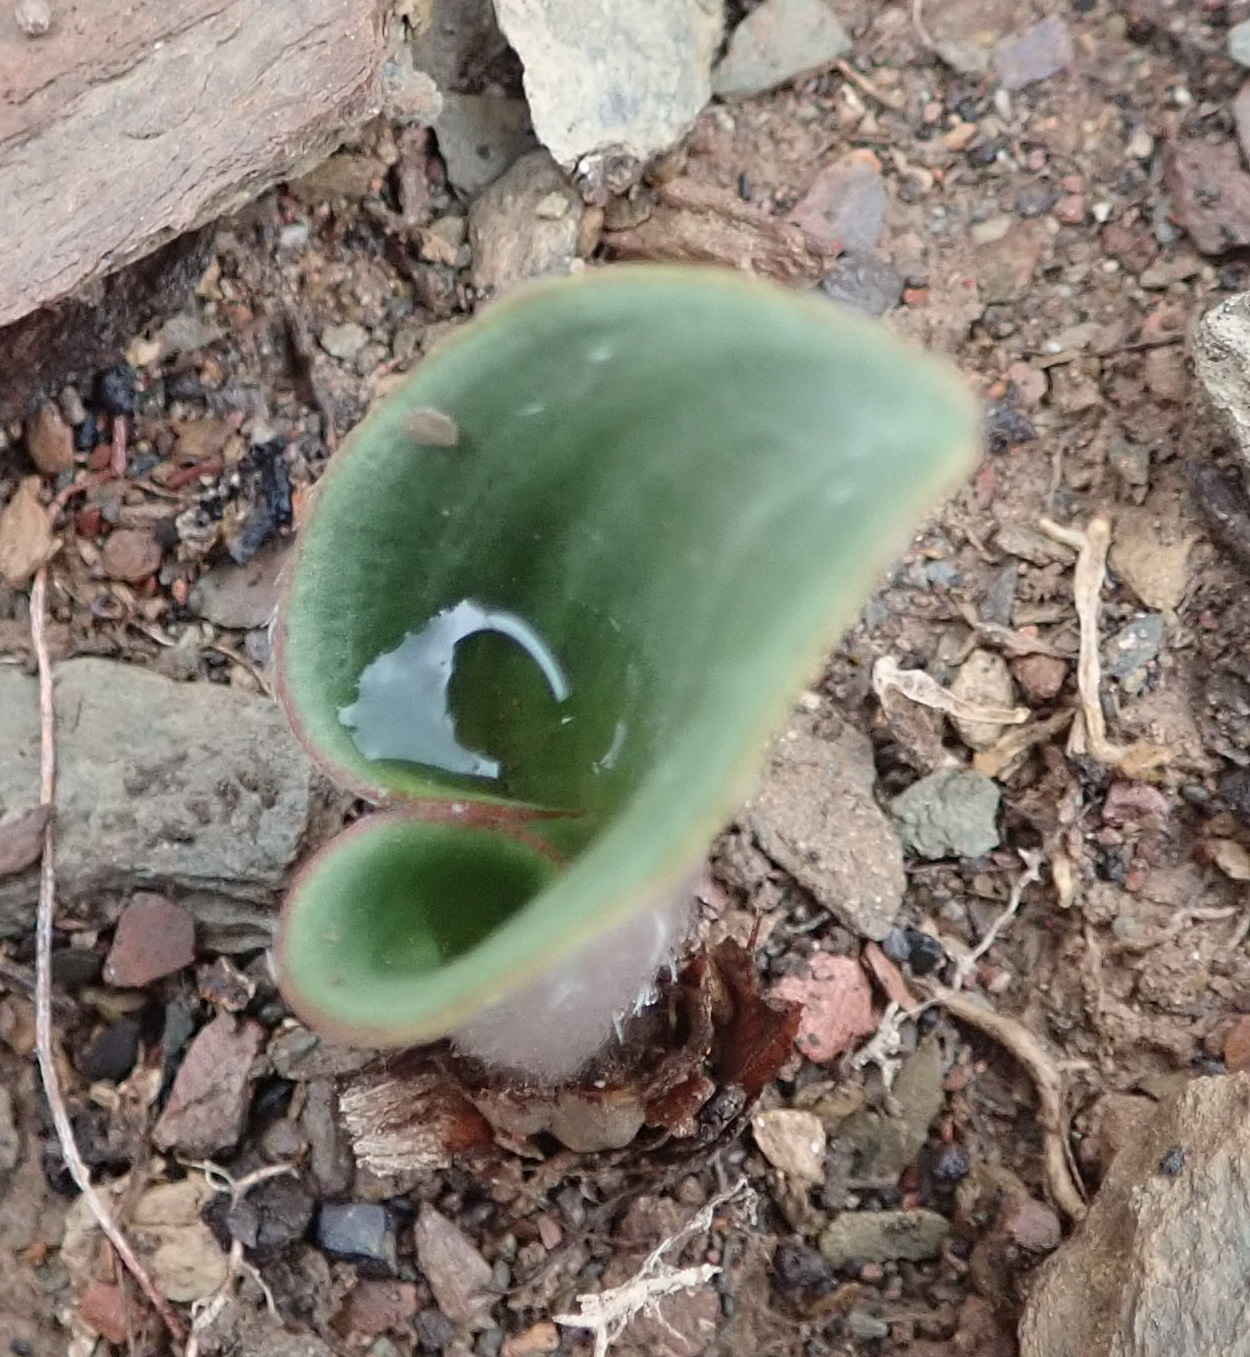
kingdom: Plantae
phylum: Tracheophyta
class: Liliopsida
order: Asparagales
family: Asparagaceae
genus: Eriospermum
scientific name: Eriospermum pubescens
